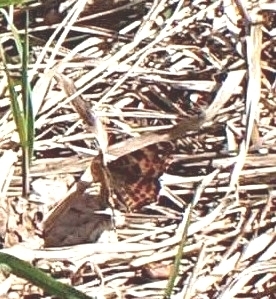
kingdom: Animalia
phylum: Arthropoda
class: Insecta
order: Lepidoptera
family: Nymphalidae
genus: Araschnia
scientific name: Araschnia levana
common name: Map butterfly
